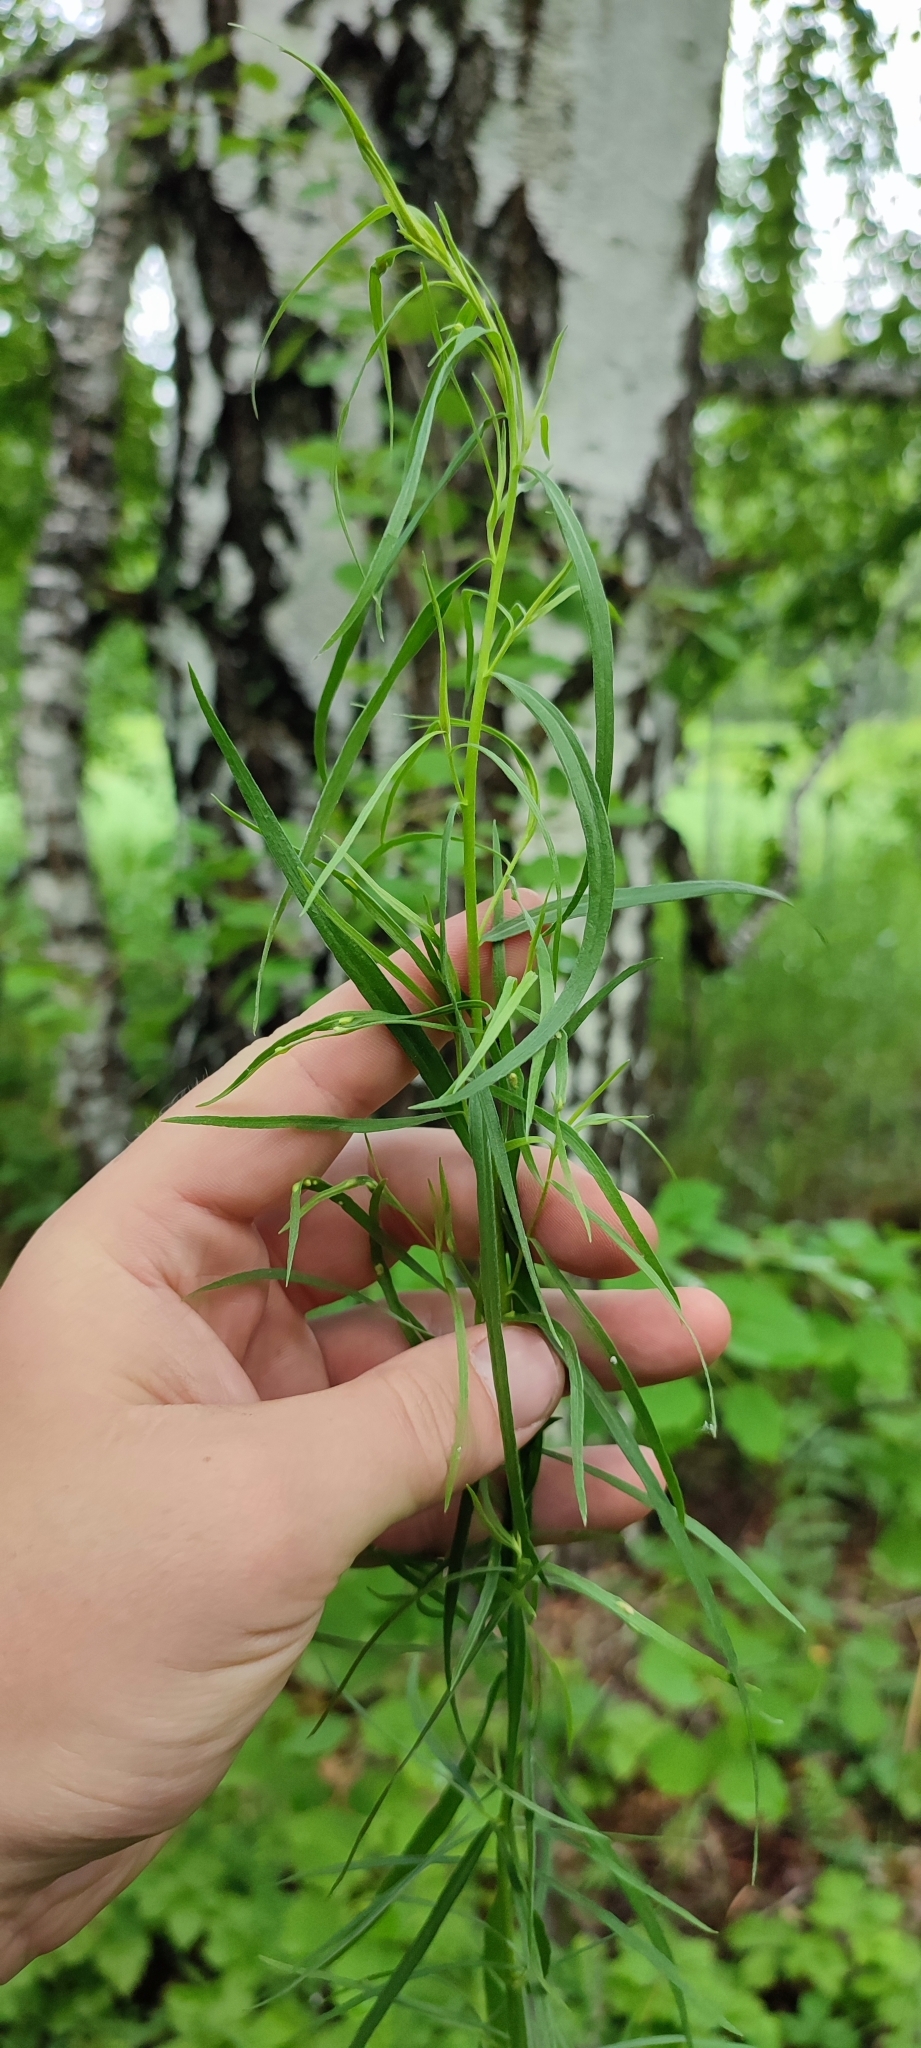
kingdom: Plantae
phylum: Tracheophyta
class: Magnoliopsida
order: Asterales
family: Asteraceae
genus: Artemisia
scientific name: Artemisia dracunculus
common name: Tarragon
